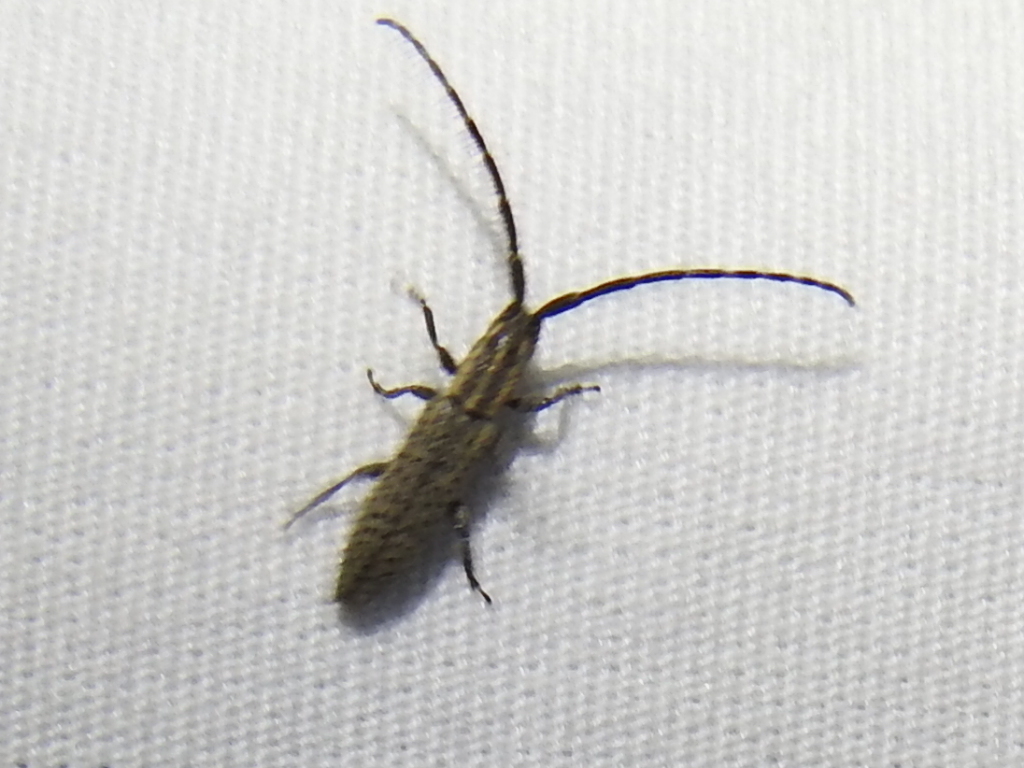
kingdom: Animalia
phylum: Arthropoda
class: Insecta
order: Coleoptera
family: Cerambycidae
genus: Dorcasta
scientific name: Dorcasta cinerea
